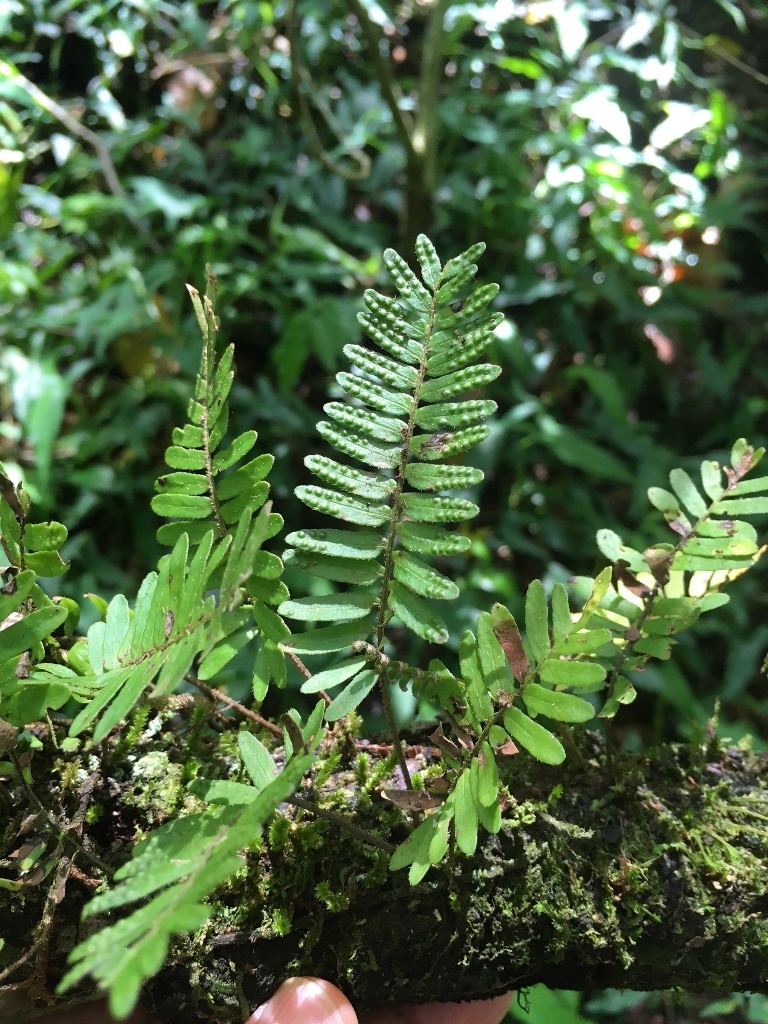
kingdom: Plantae
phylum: Tracheophyta
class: Polypodiopsida
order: Polypodiales
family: Polypodiaceae
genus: Pleopeltis
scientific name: Pleopeltis polypodioides
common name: Resurrection fern
